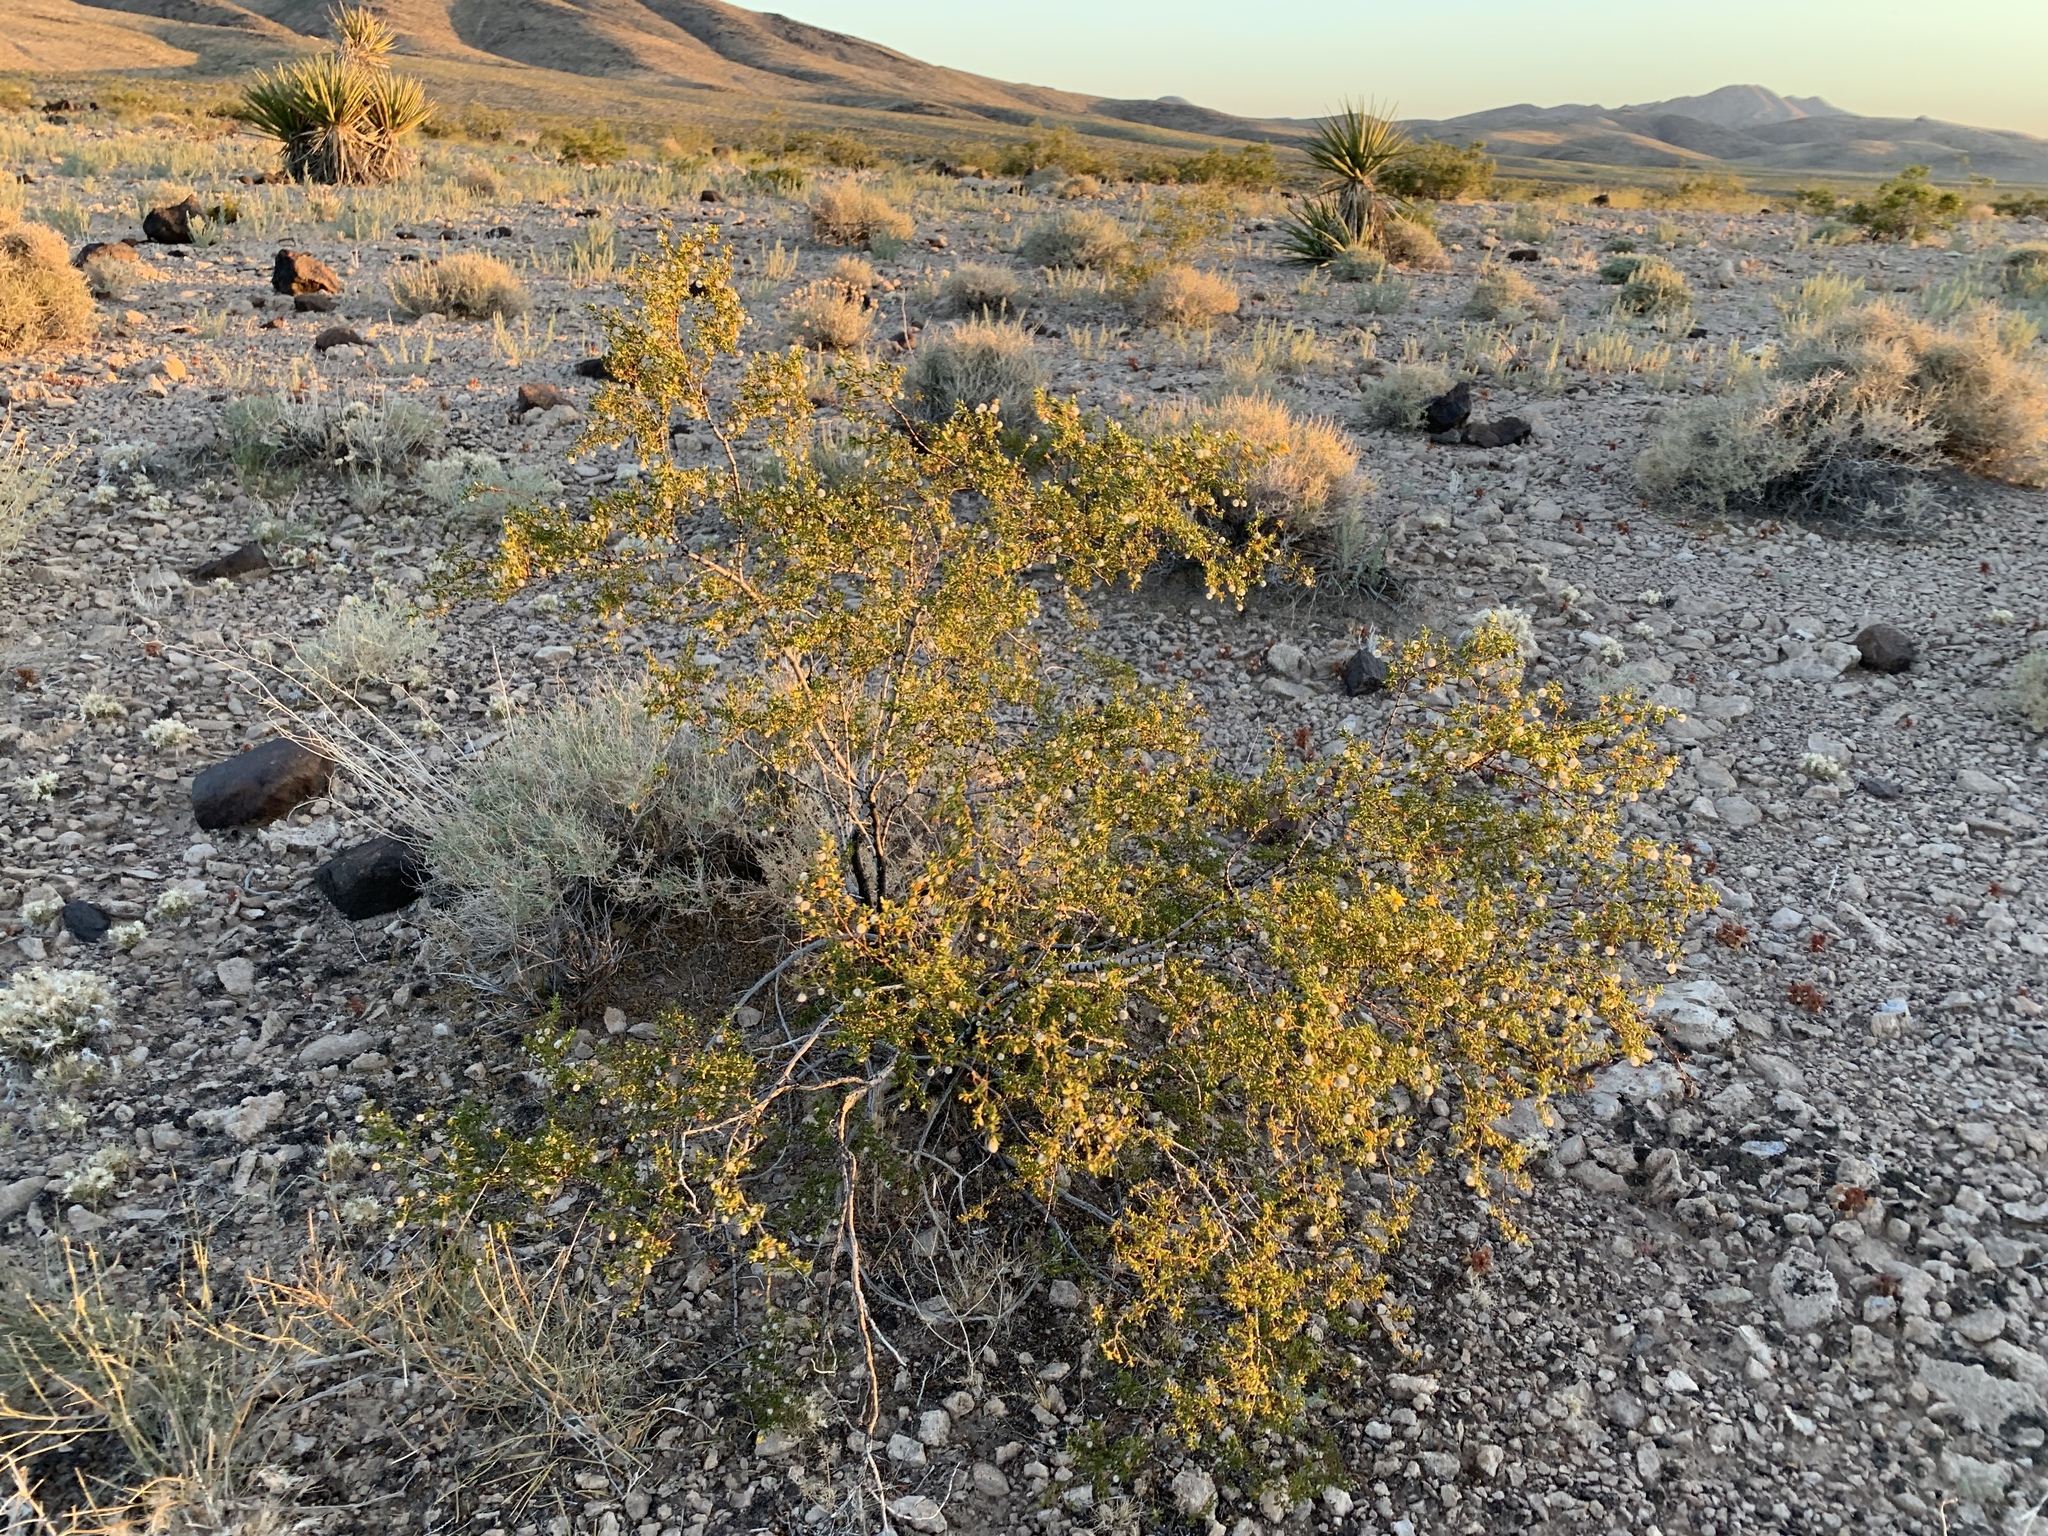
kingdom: Plantae
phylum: Tracheophyta
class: Magnoliopsida
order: Zygophyllales
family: Zygophyllaceae
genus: Larrea
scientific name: Larrea tridentata
